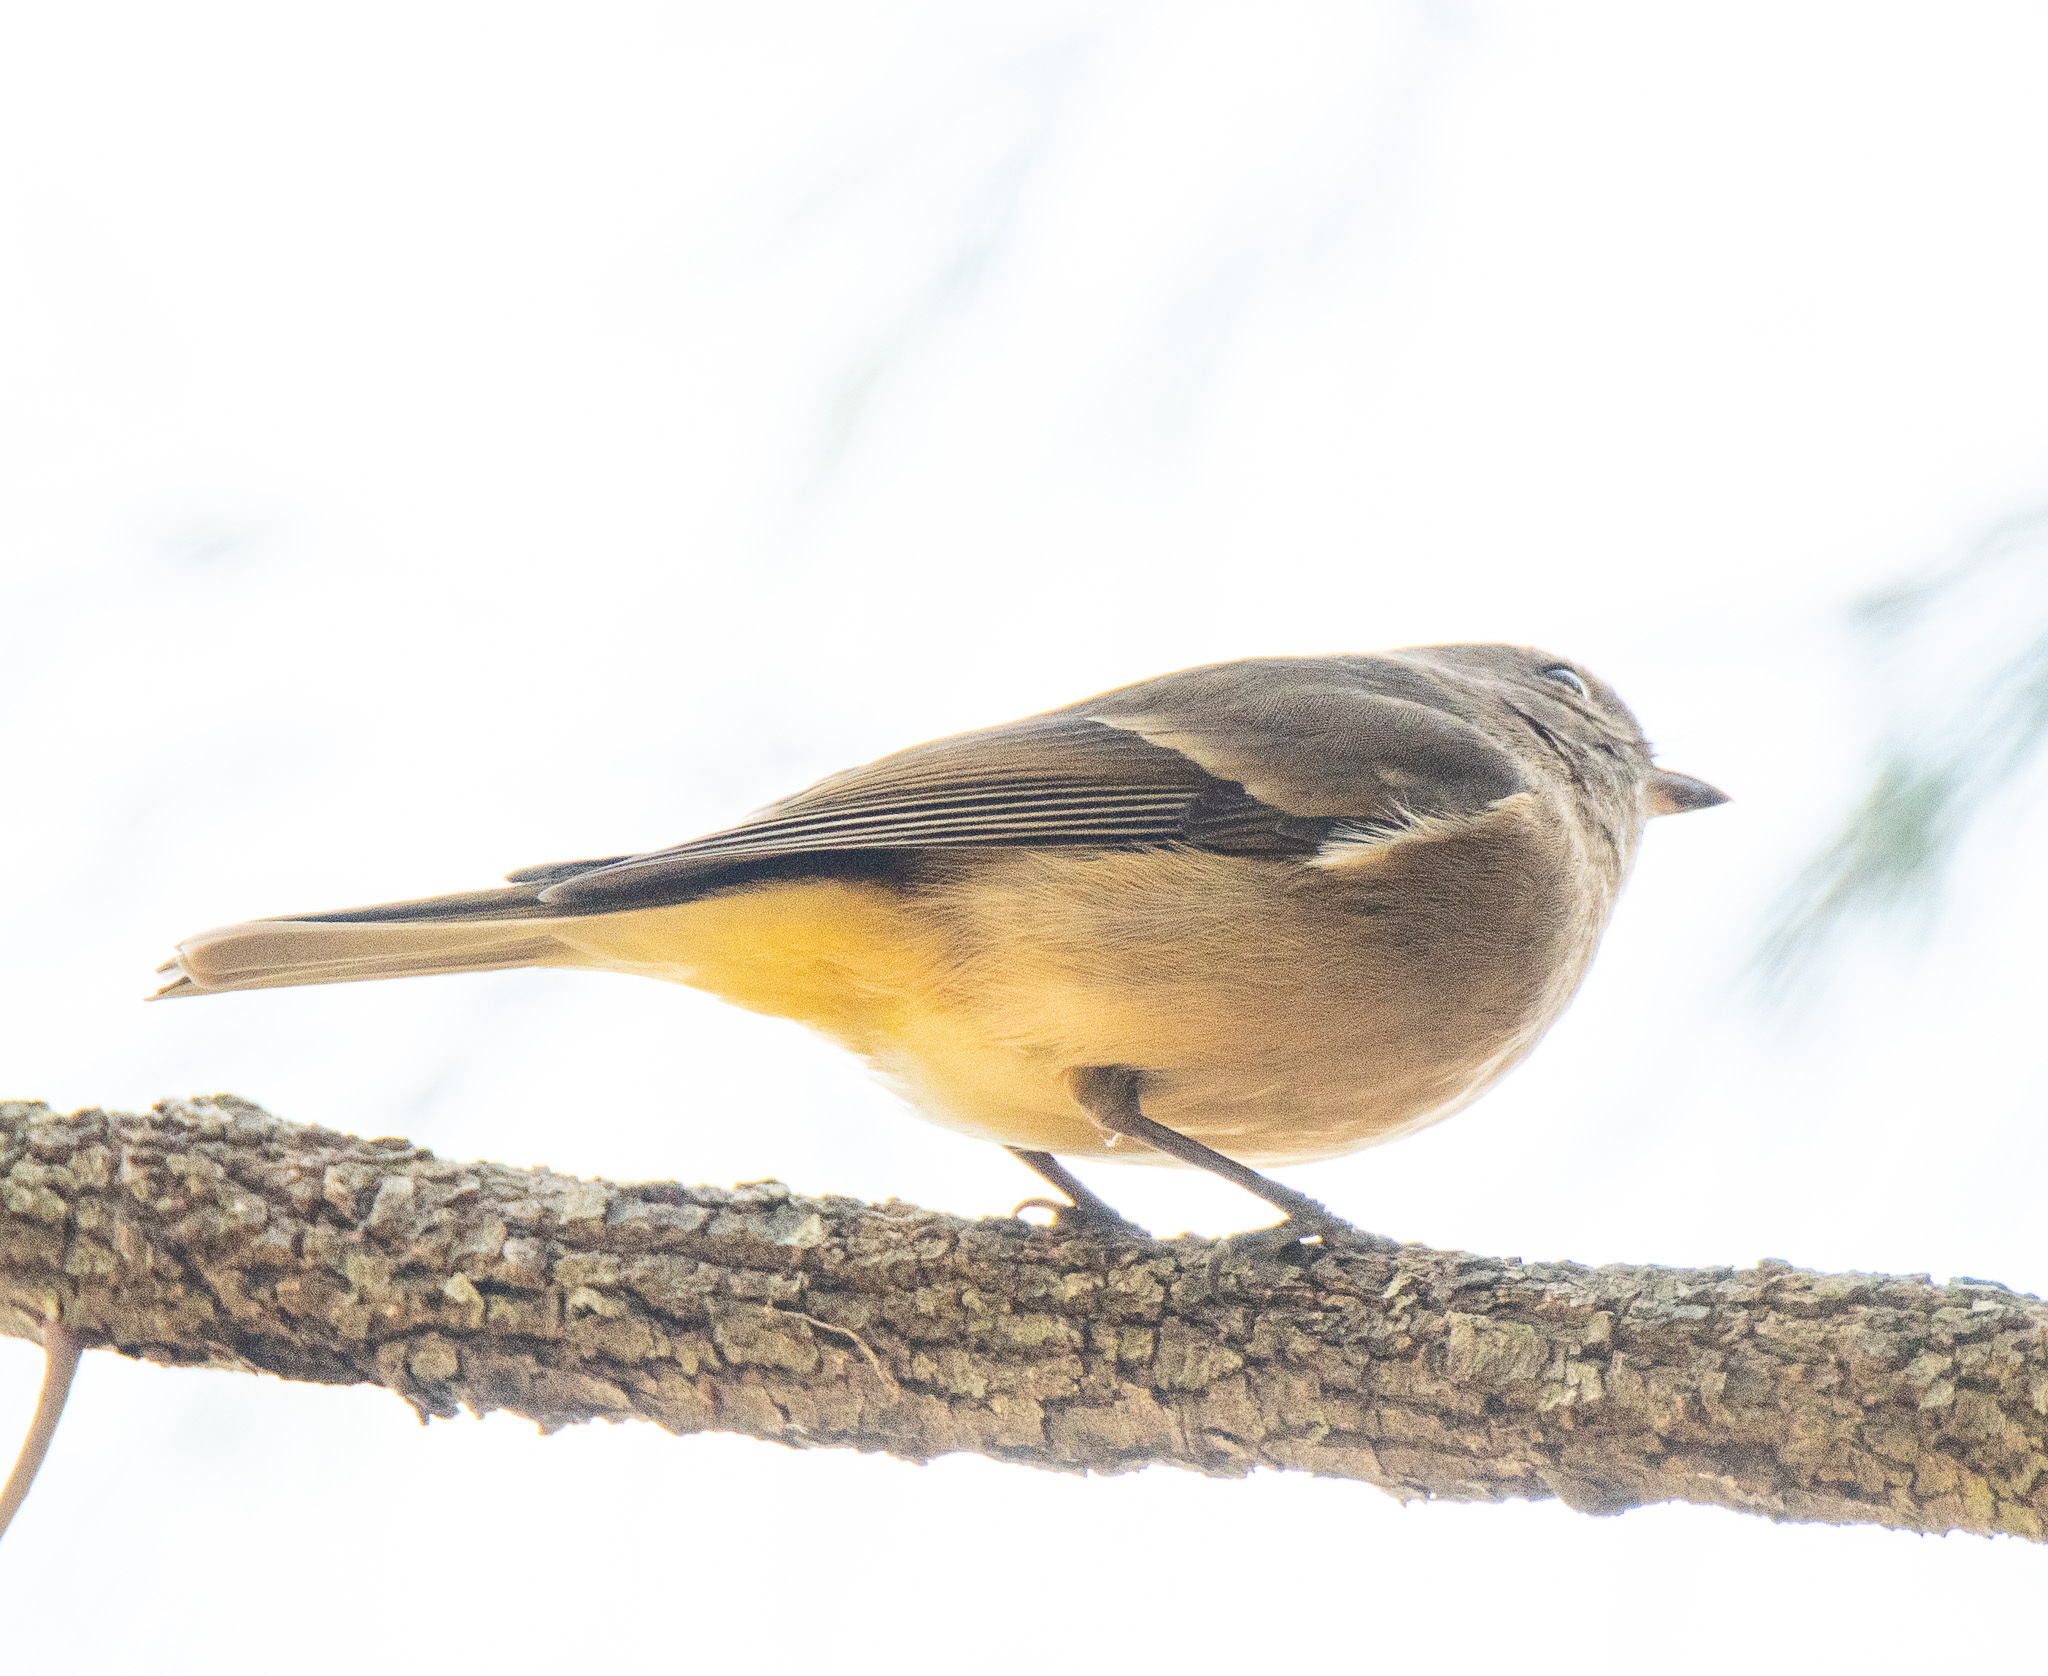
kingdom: Animalia
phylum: Chordata
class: Aves
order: Passeriformes
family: Pachycephalidae
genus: Pachycephala
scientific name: Pachycephala pectoralis
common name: Australian golden whistler
